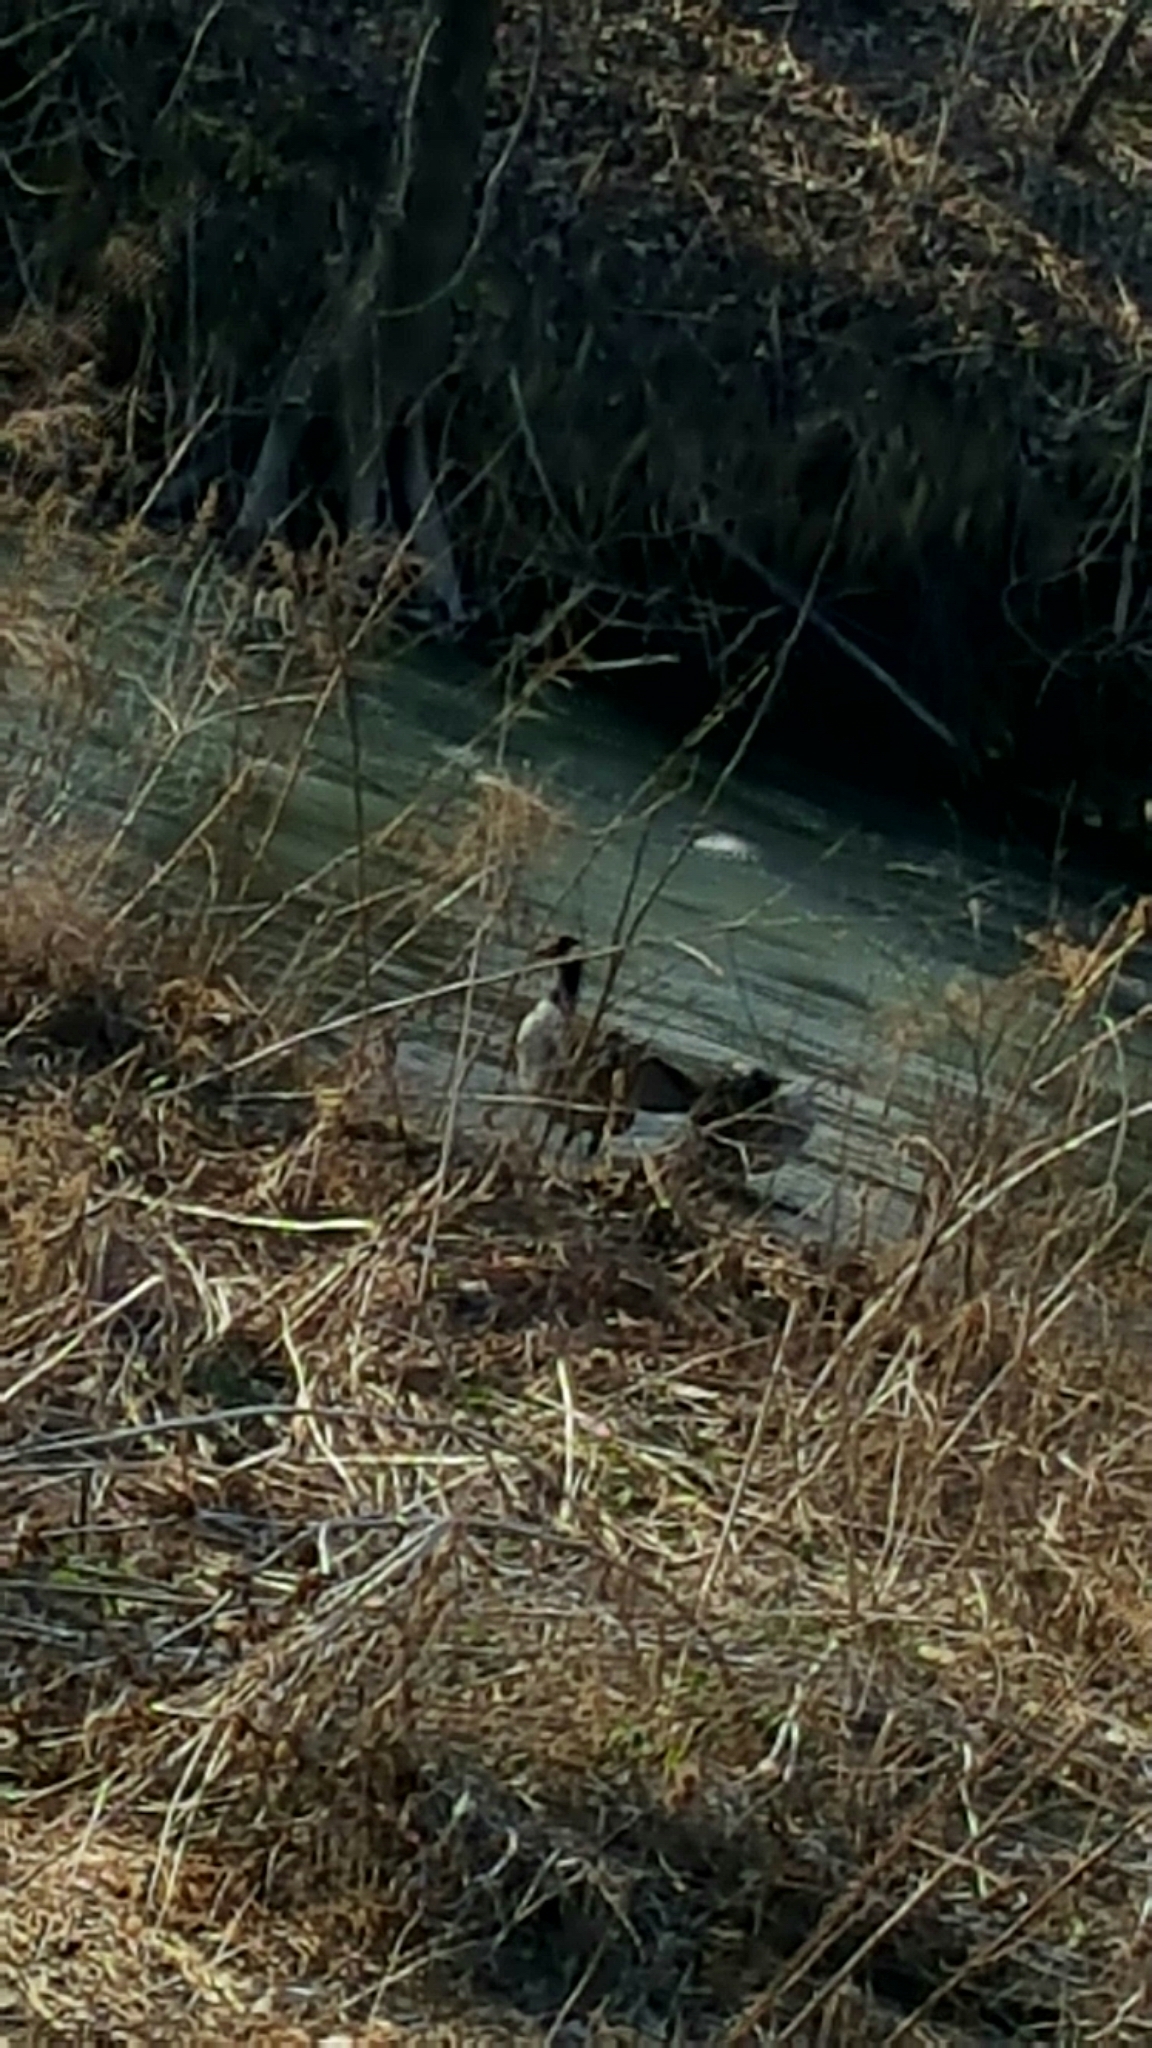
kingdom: Animalia
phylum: Chordata
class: Aves
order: Anseriformes
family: Anatidae
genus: Branta
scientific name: Branta canadensis
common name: Canada goose
